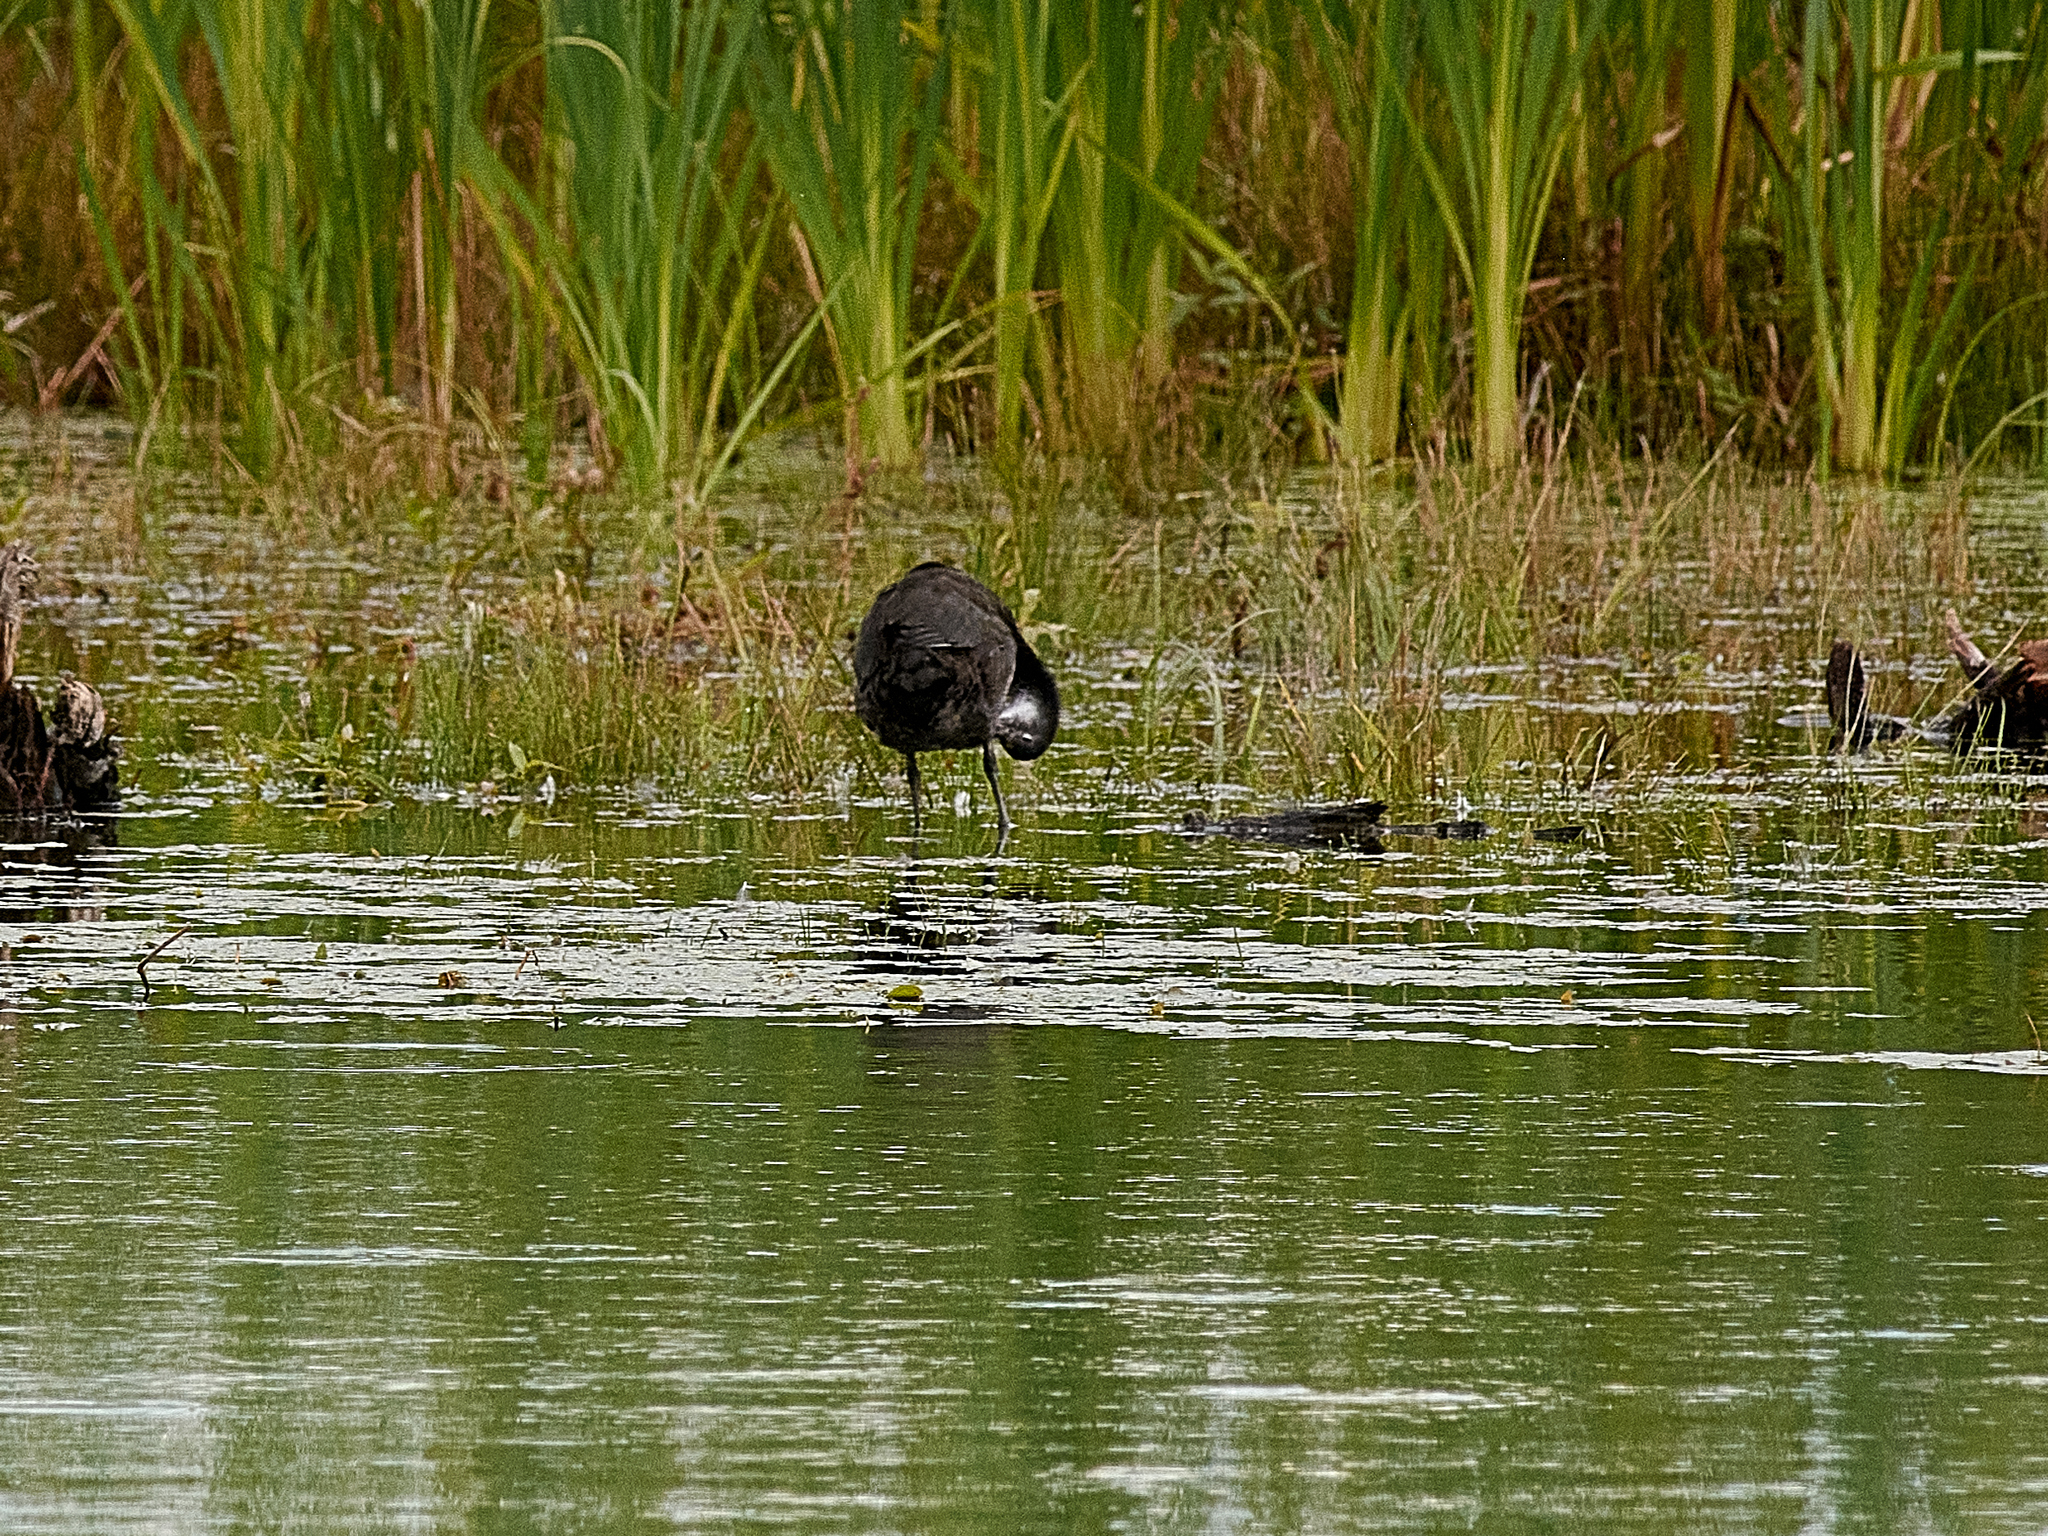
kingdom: Animalia
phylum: Chordata
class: Aves
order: Gruiformes
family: Rallidae
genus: Fulica
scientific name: Fulica atra
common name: Eurasian coot
